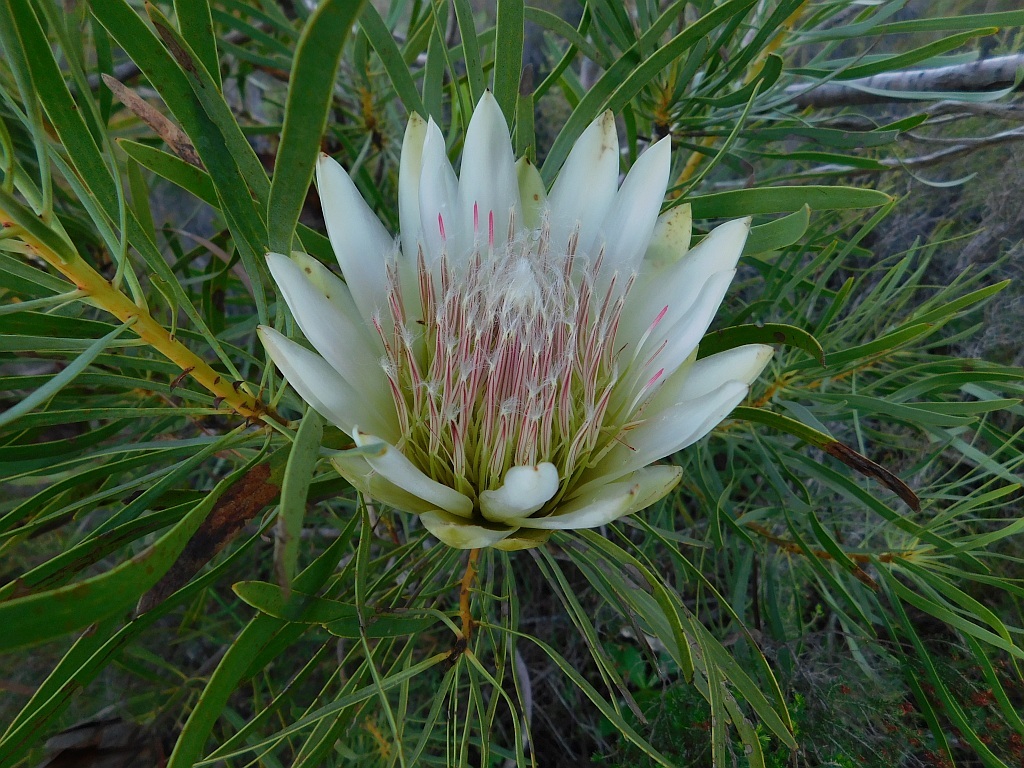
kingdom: Plantae
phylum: Tracheophyta
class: Magnoliopsida
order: Proteales
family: Proteaceae
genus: Protea
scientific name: Protea repens
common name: Sugarbush
